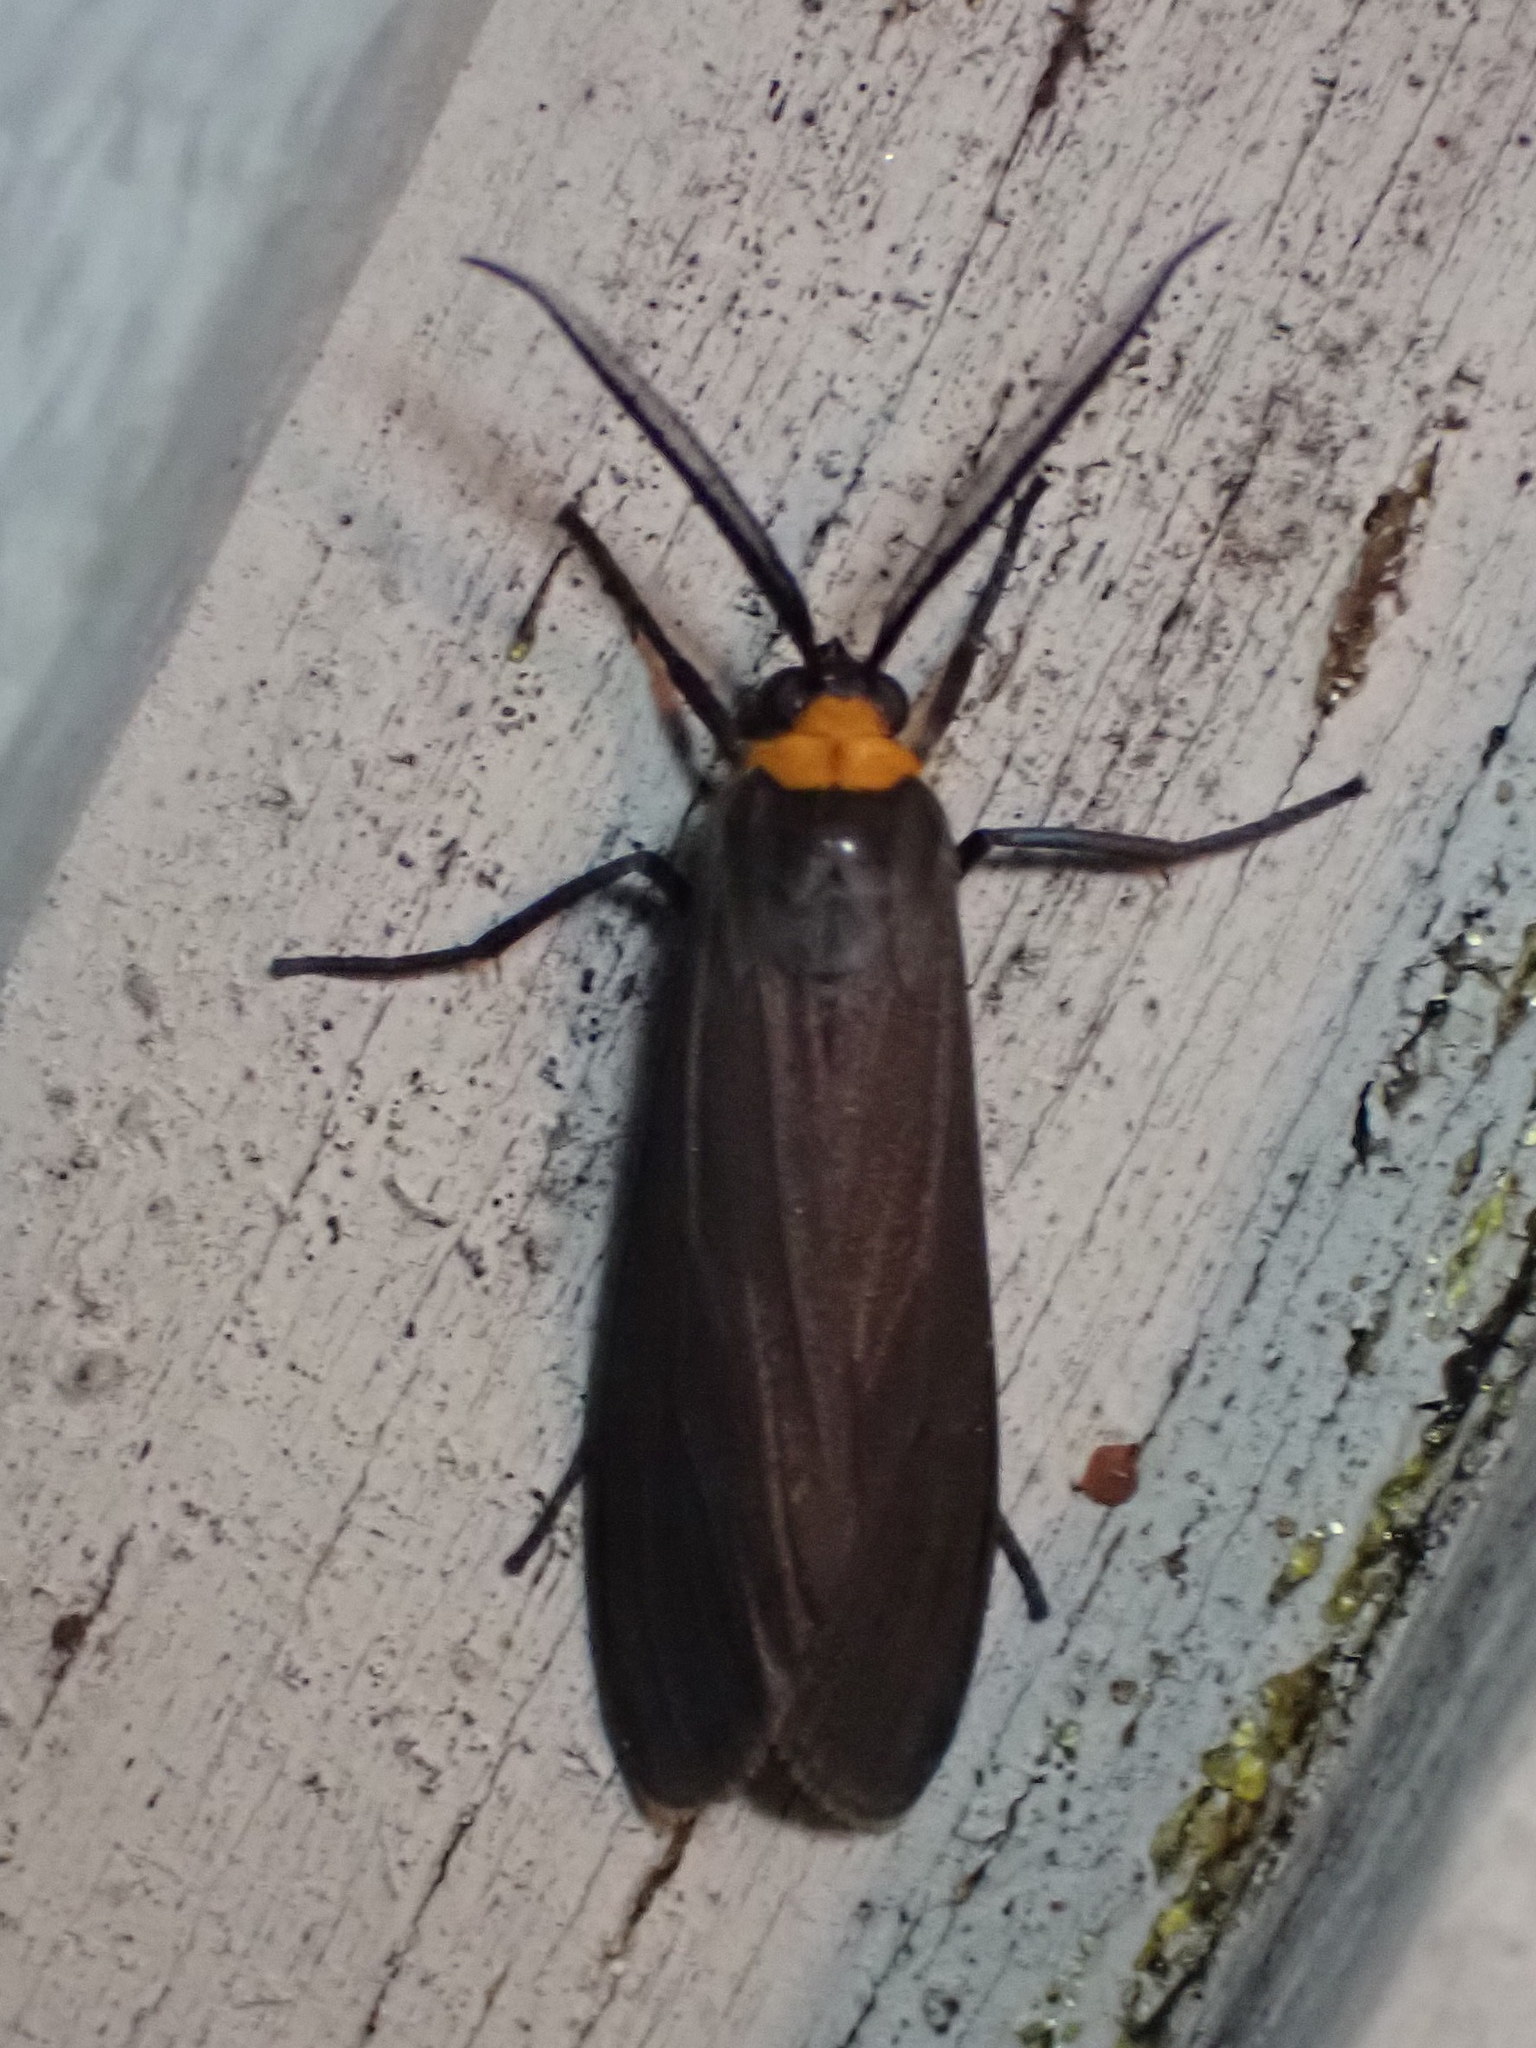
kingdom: Animalia
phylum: Arthropoda
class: Insecta
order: Lepidoptera
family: Erebidae
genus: Cisseps
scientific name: Cisseps fulvicollis
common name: Yellow-collared scape moth
